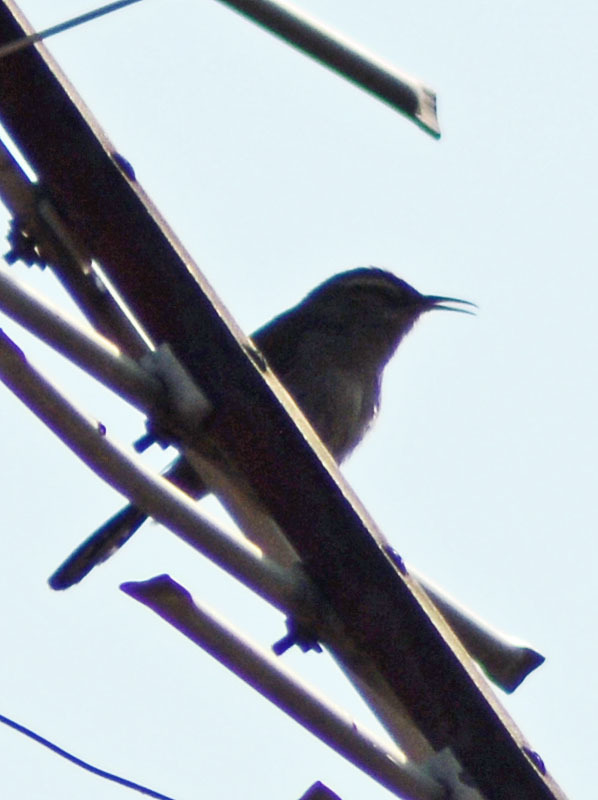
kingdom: Animalia
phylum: Chordata
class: Aves
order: Passeriformes
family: Troglodytidae
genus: Thryomanes
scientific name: Thryomanes bewickii
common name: Bewick's wren
